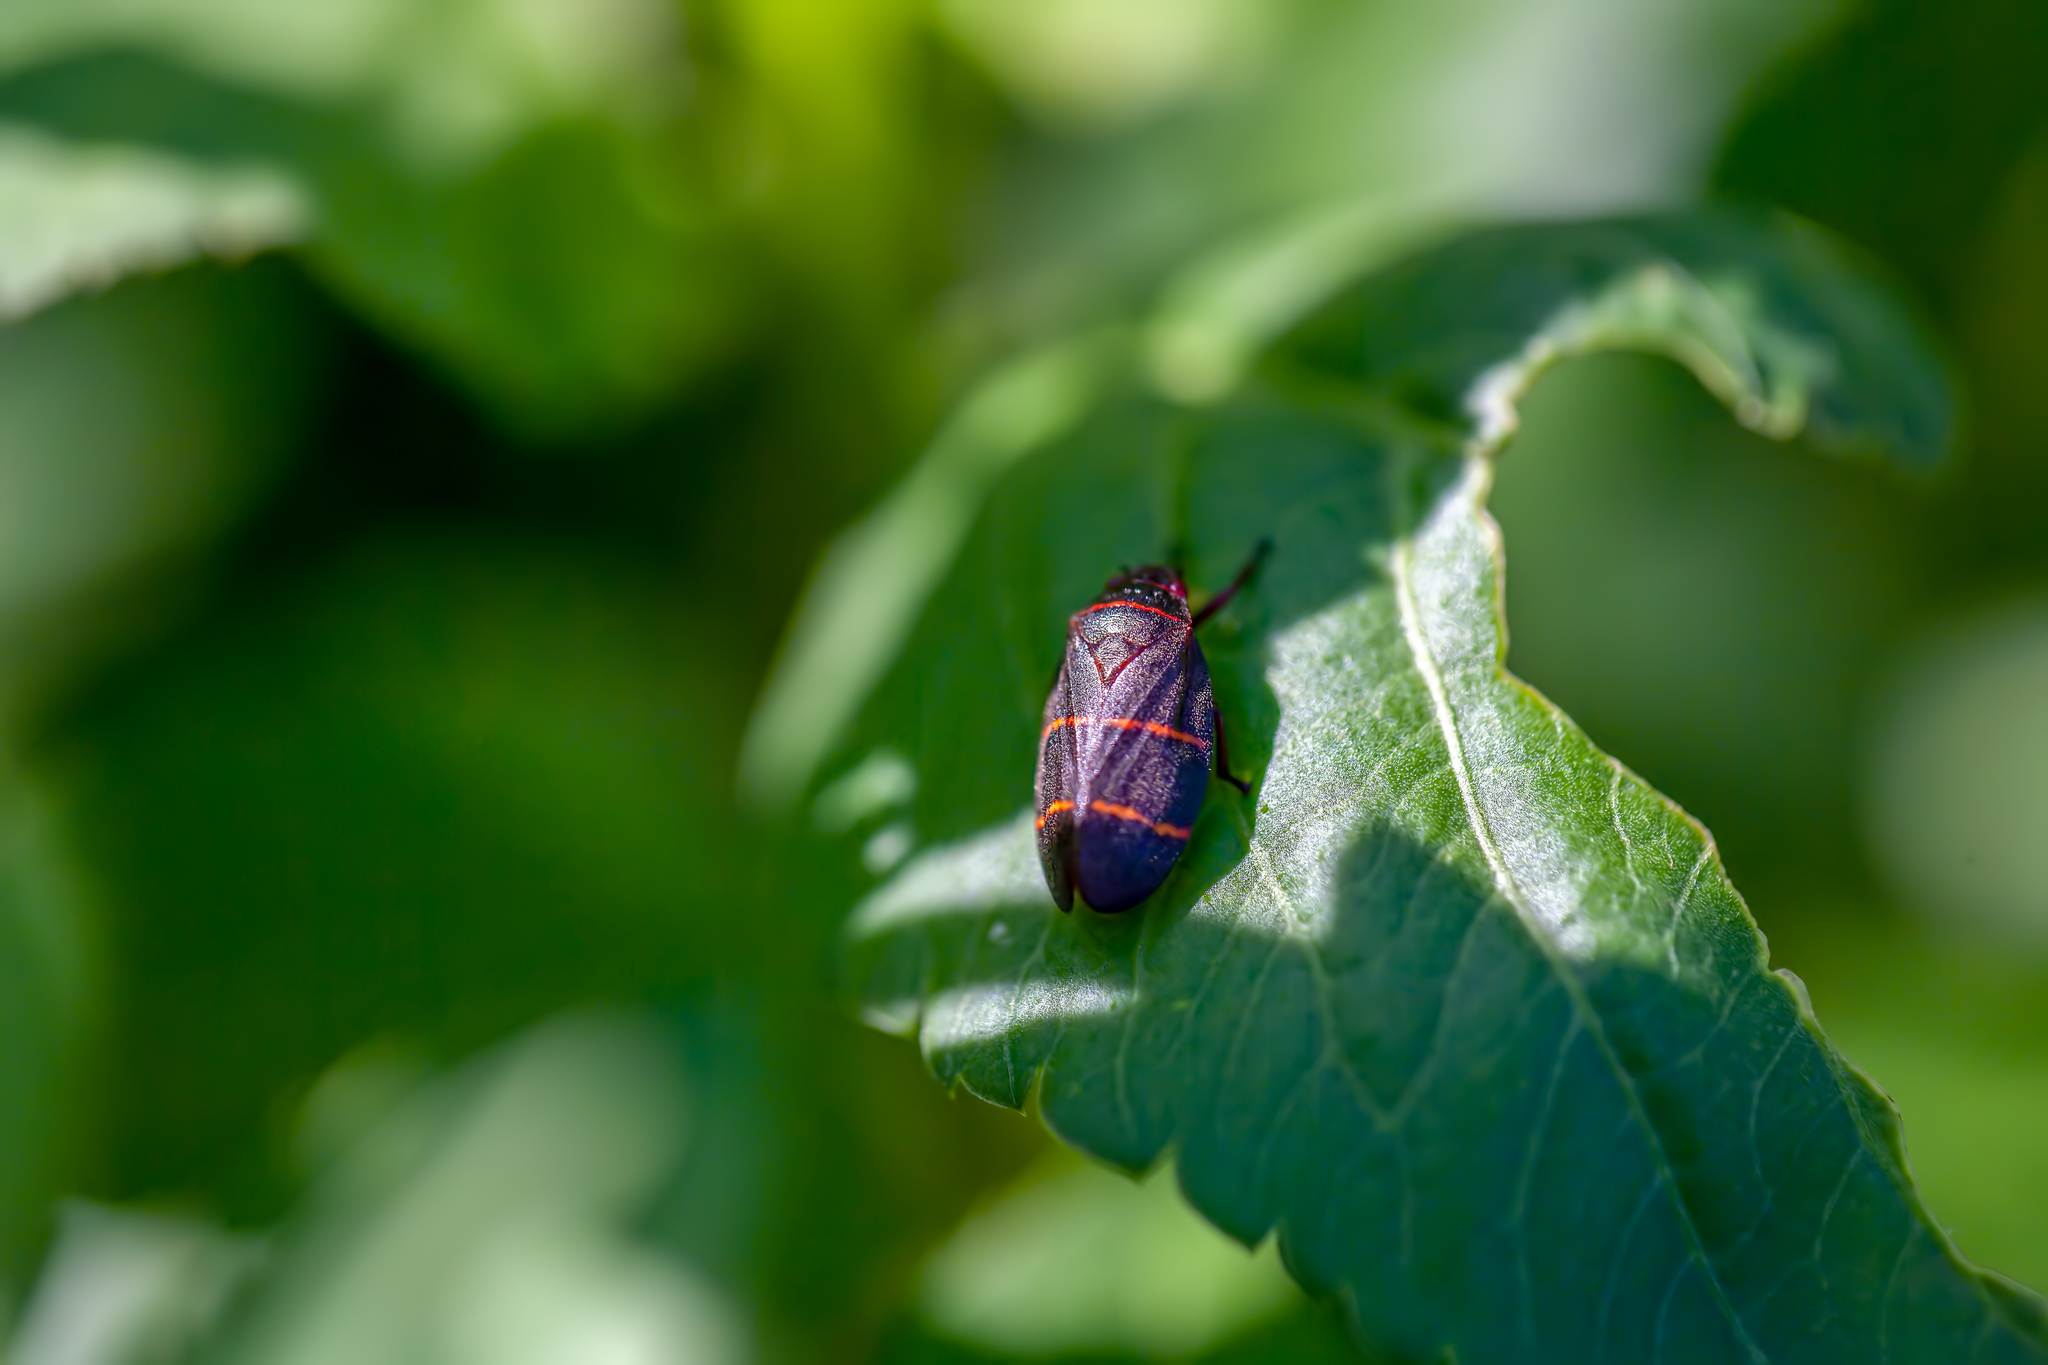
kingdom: Animalia
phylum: Arthropoda
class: Insecta
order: Hemiptera
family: Cercopidae
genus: Prosapia
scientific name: Prosapia bicincta
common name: Twolined spittlebug
